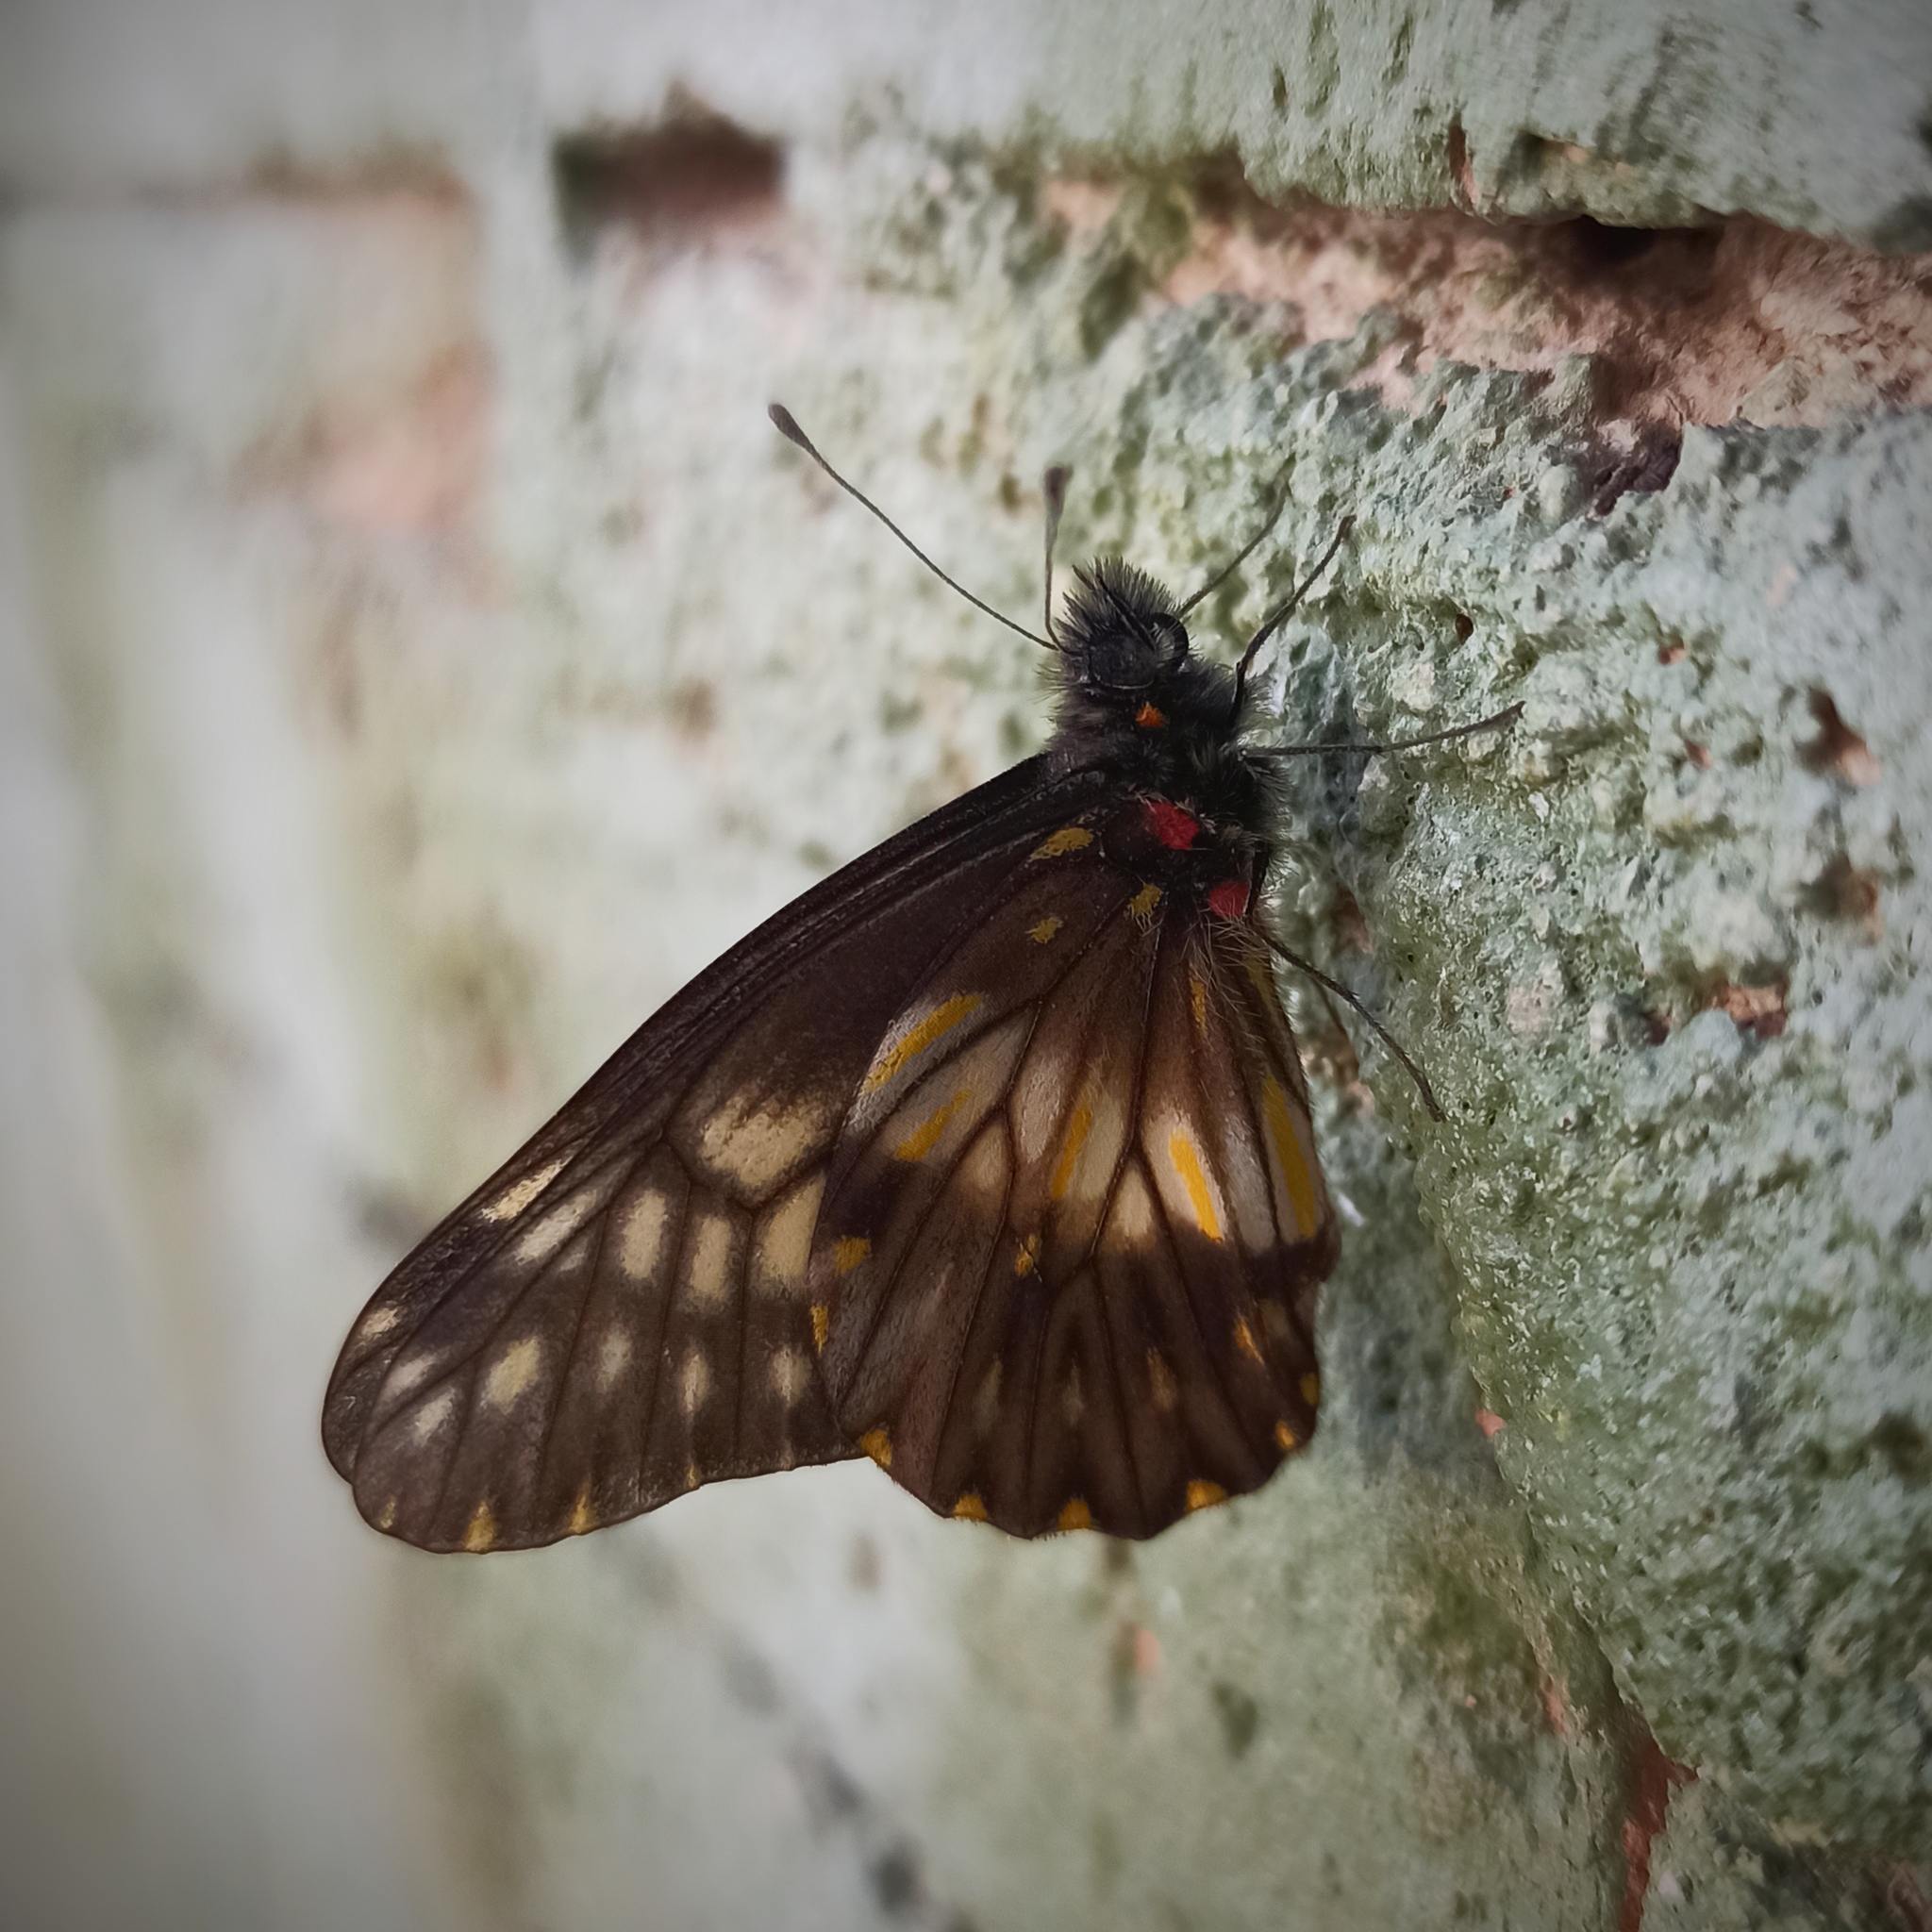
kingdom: Animalia
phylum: Arthropoda
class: Insecta
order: Lepidoptera
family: Pieridae
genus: Archonias
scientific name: Archonias nimbice
